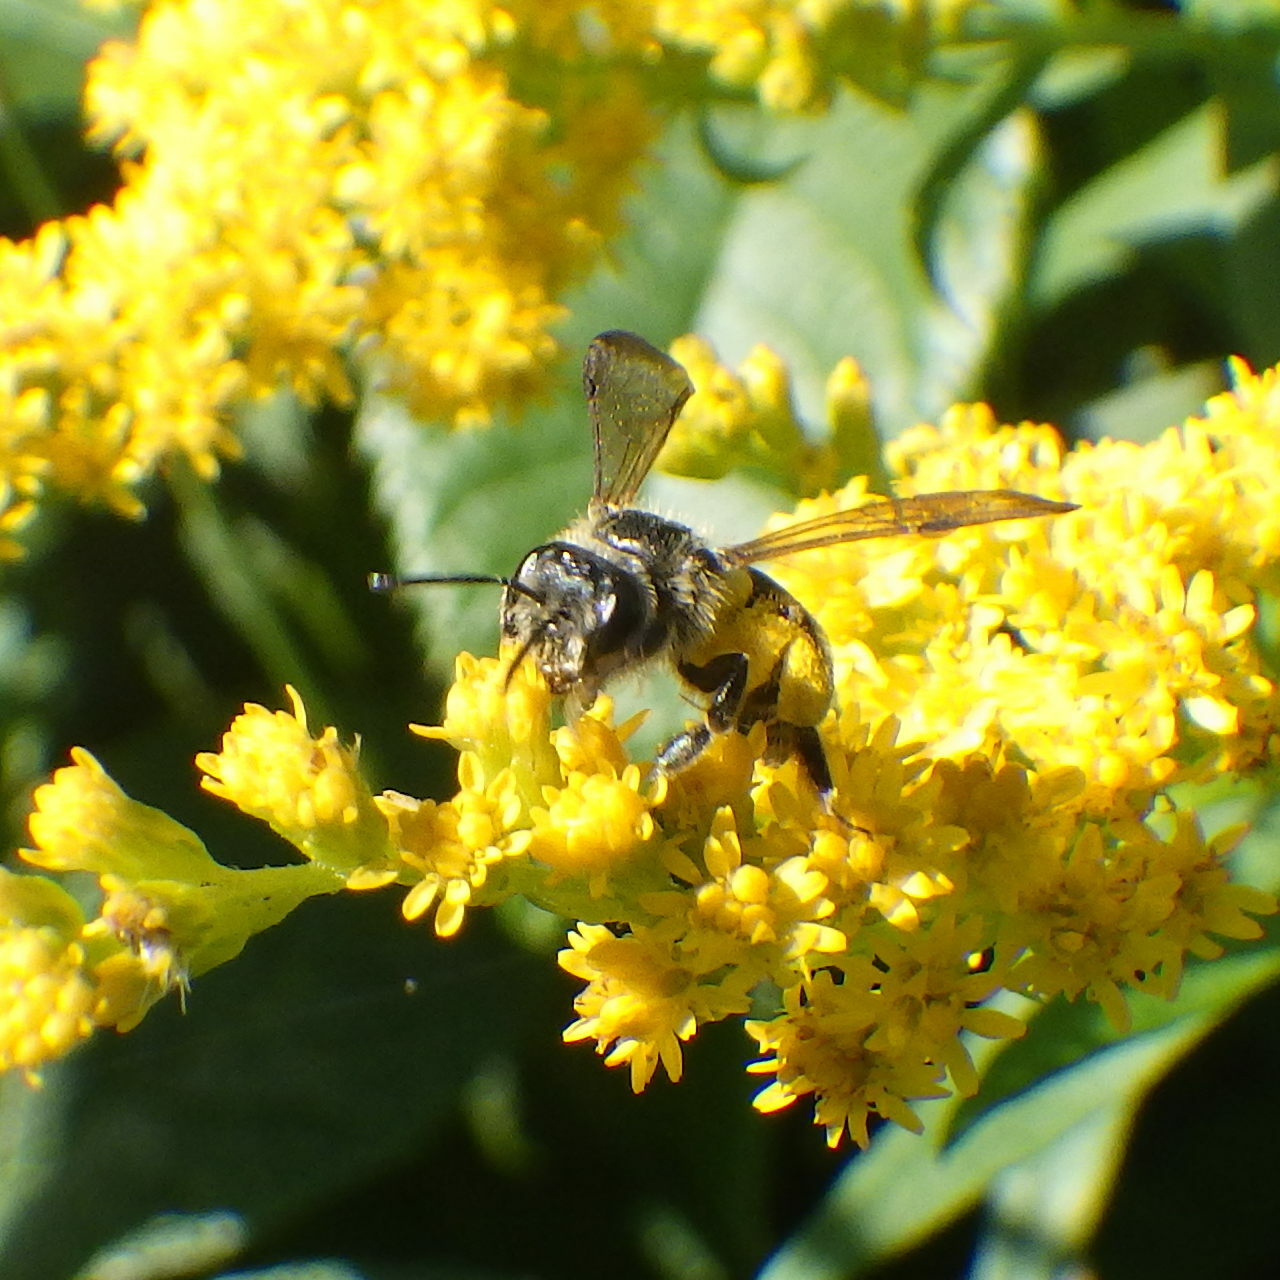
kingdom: Animalia
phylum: Arthropoda
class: Insecta
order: Hymenoptera
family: Andrenidae
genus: Andrena
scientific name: Andrena nubecula
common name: Cloudy-winged mining bee
